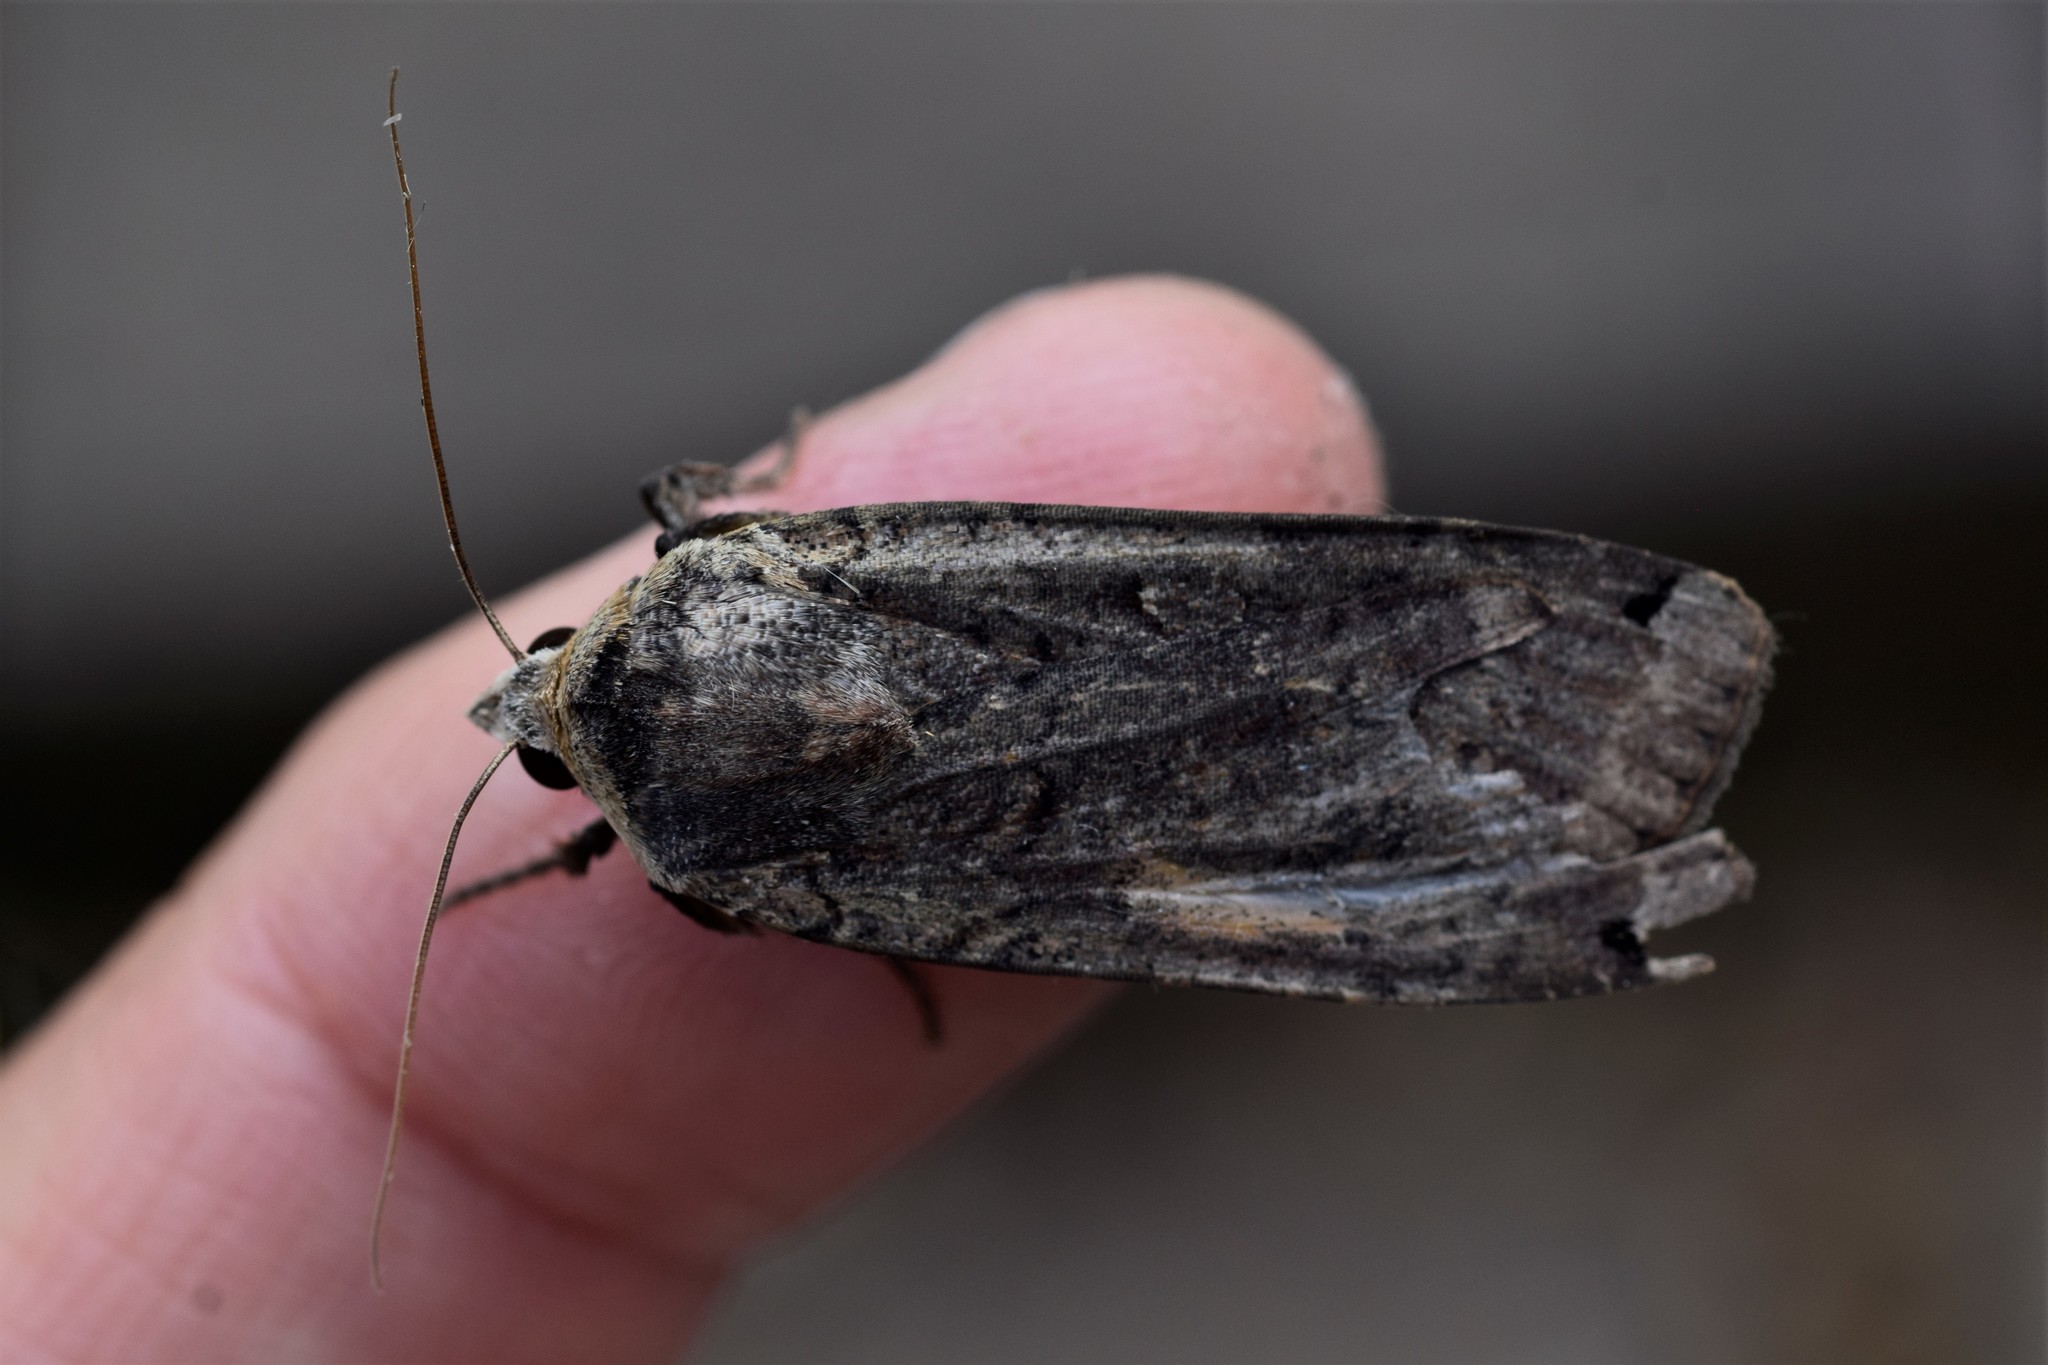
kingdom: Animalia
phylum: Arthropoda
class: Insecta
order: Lepidoptera
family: Noctuidae
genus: Noctua
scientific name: Noctua pronuba
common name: Large yellow underwing
